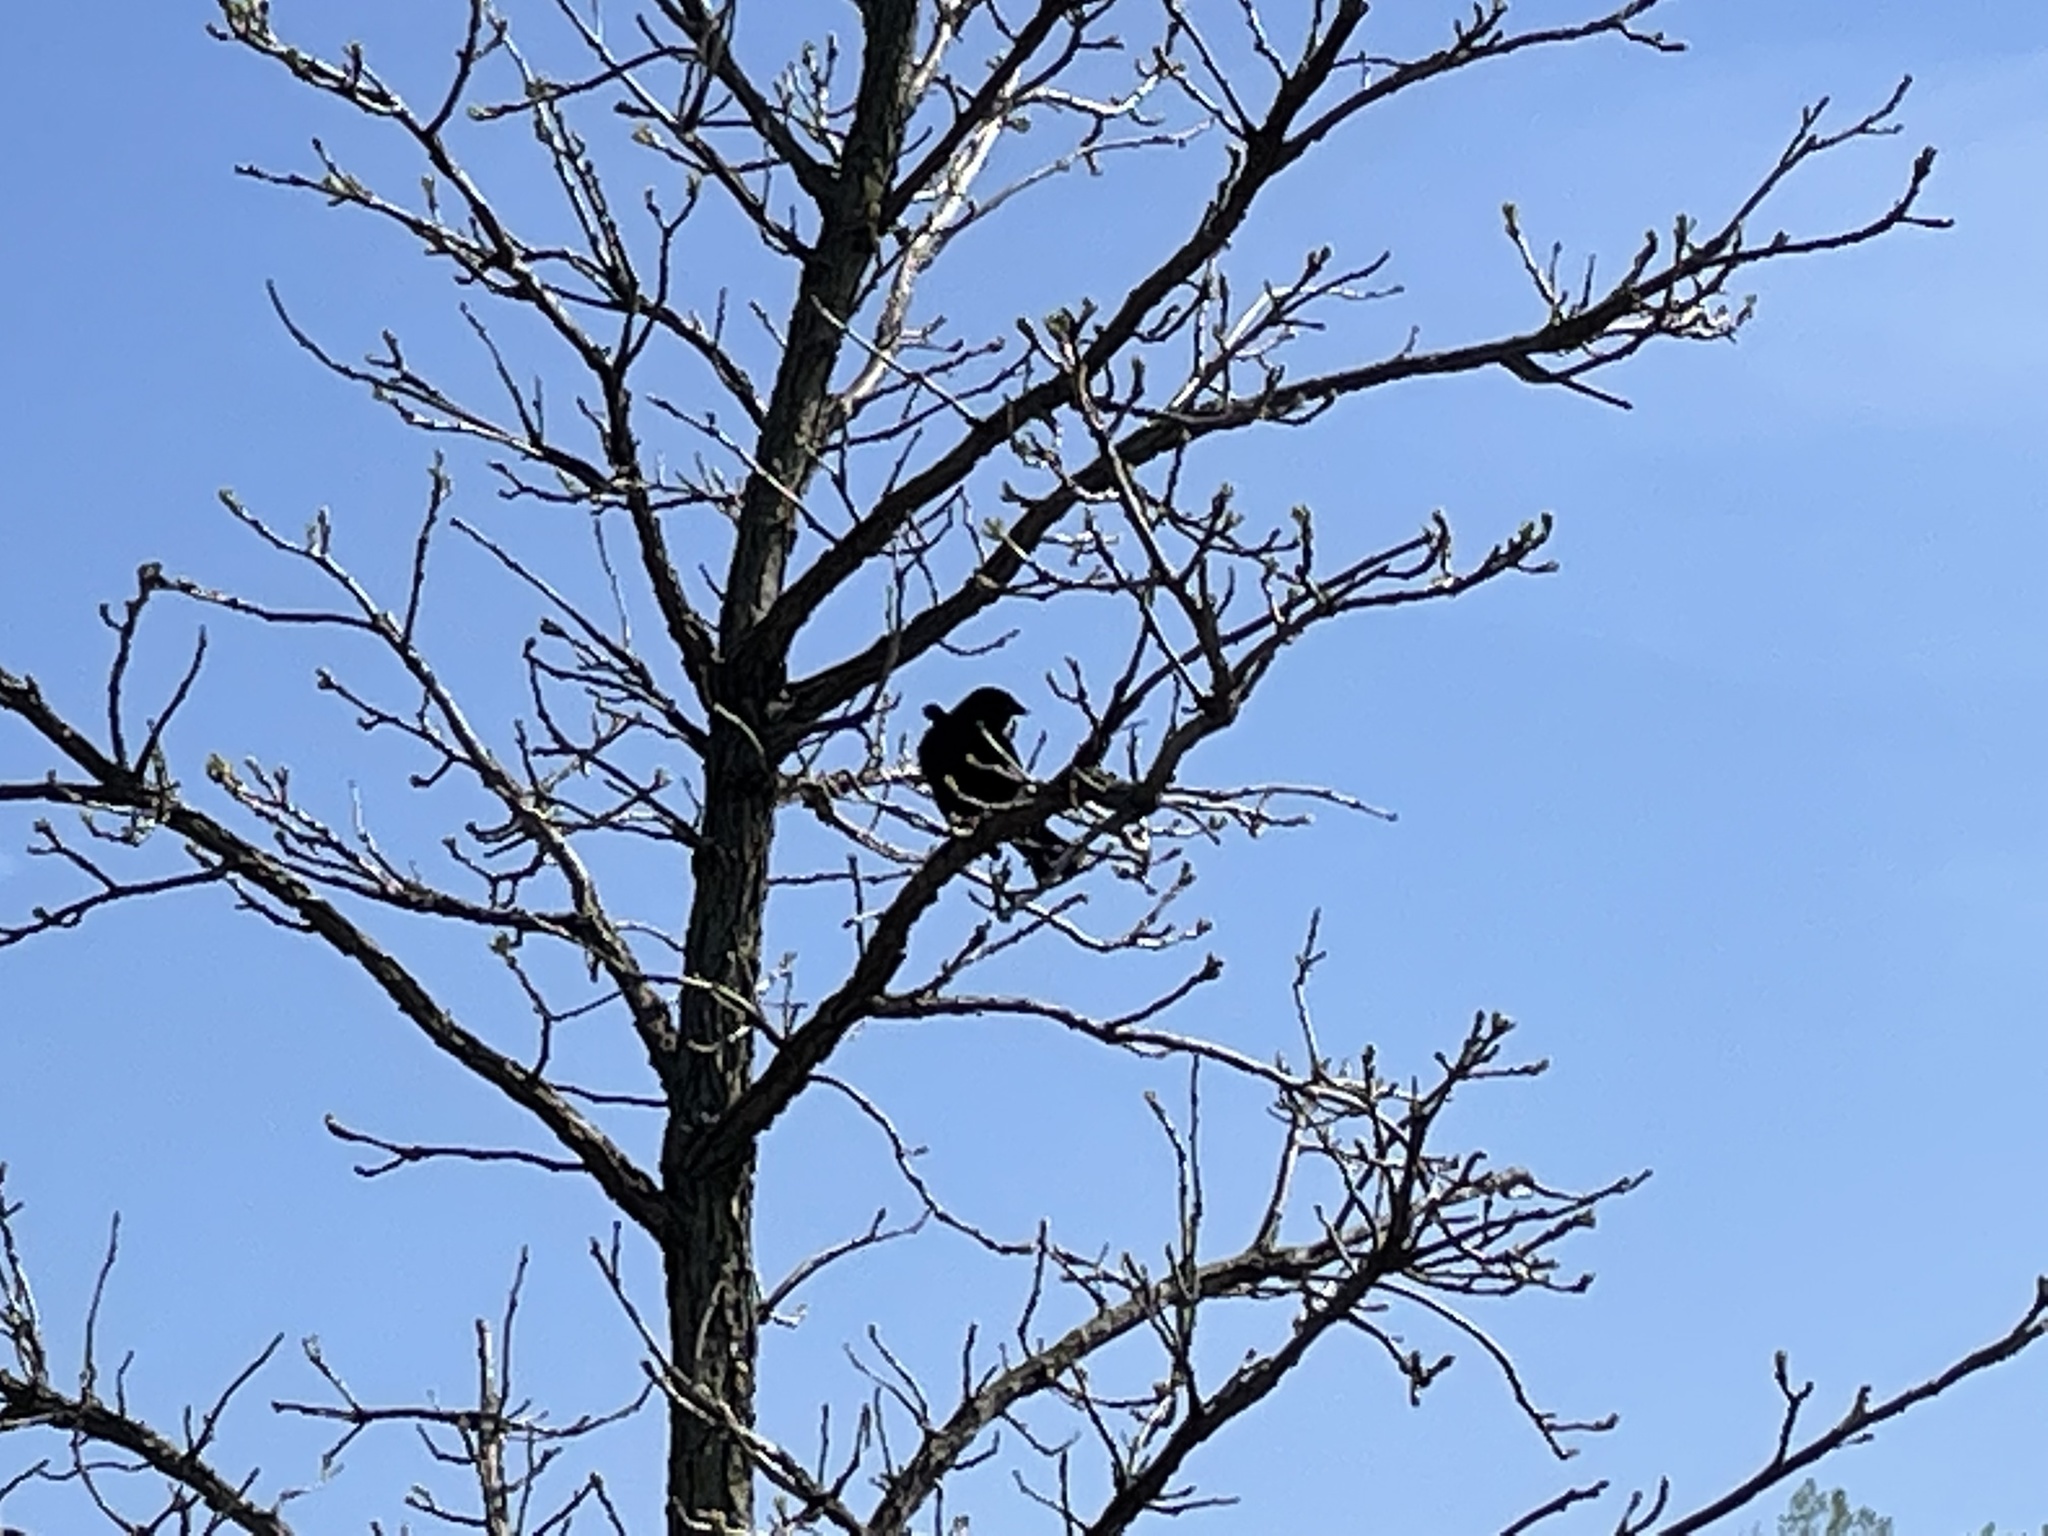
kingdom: Animalia
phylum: Chordata
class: Aves
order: Passeriformes
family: Icteridae
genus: Agelaius
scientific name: Agelaius phoeniceus
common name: Red-winged blackbird
